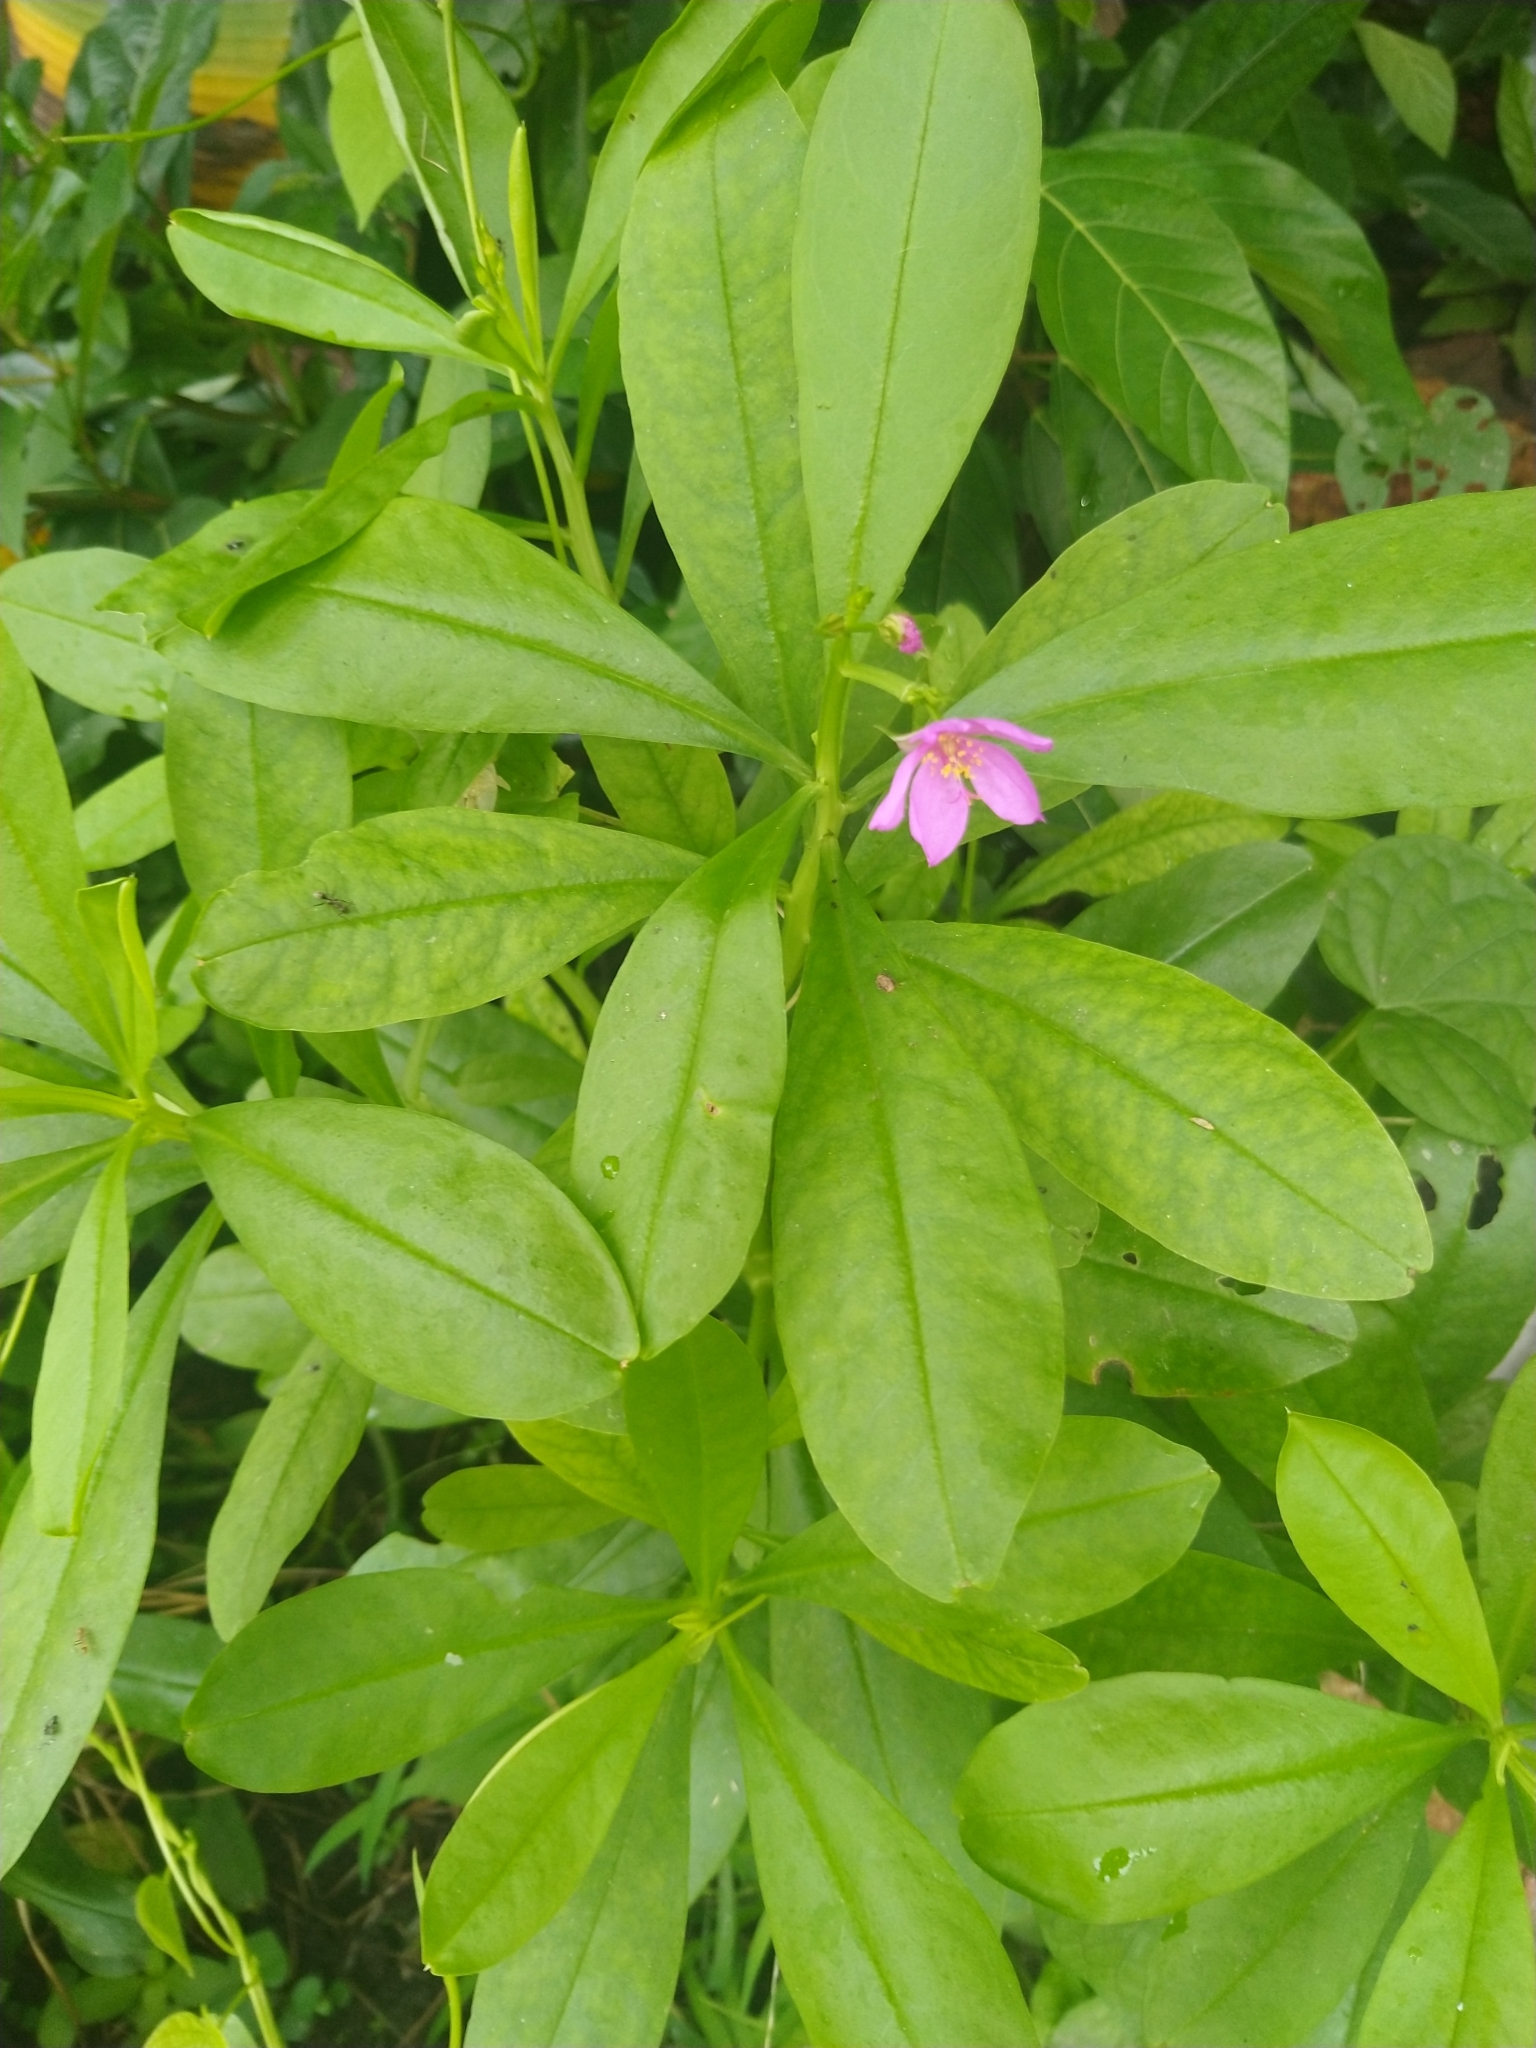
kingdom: Plantae
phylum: Tracheophyta
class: Magnoliopsida
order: Caryophyllales
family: Talinaceae
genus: Talinum
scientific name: Talinum fruticosum
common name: Verdolaga-francesa
